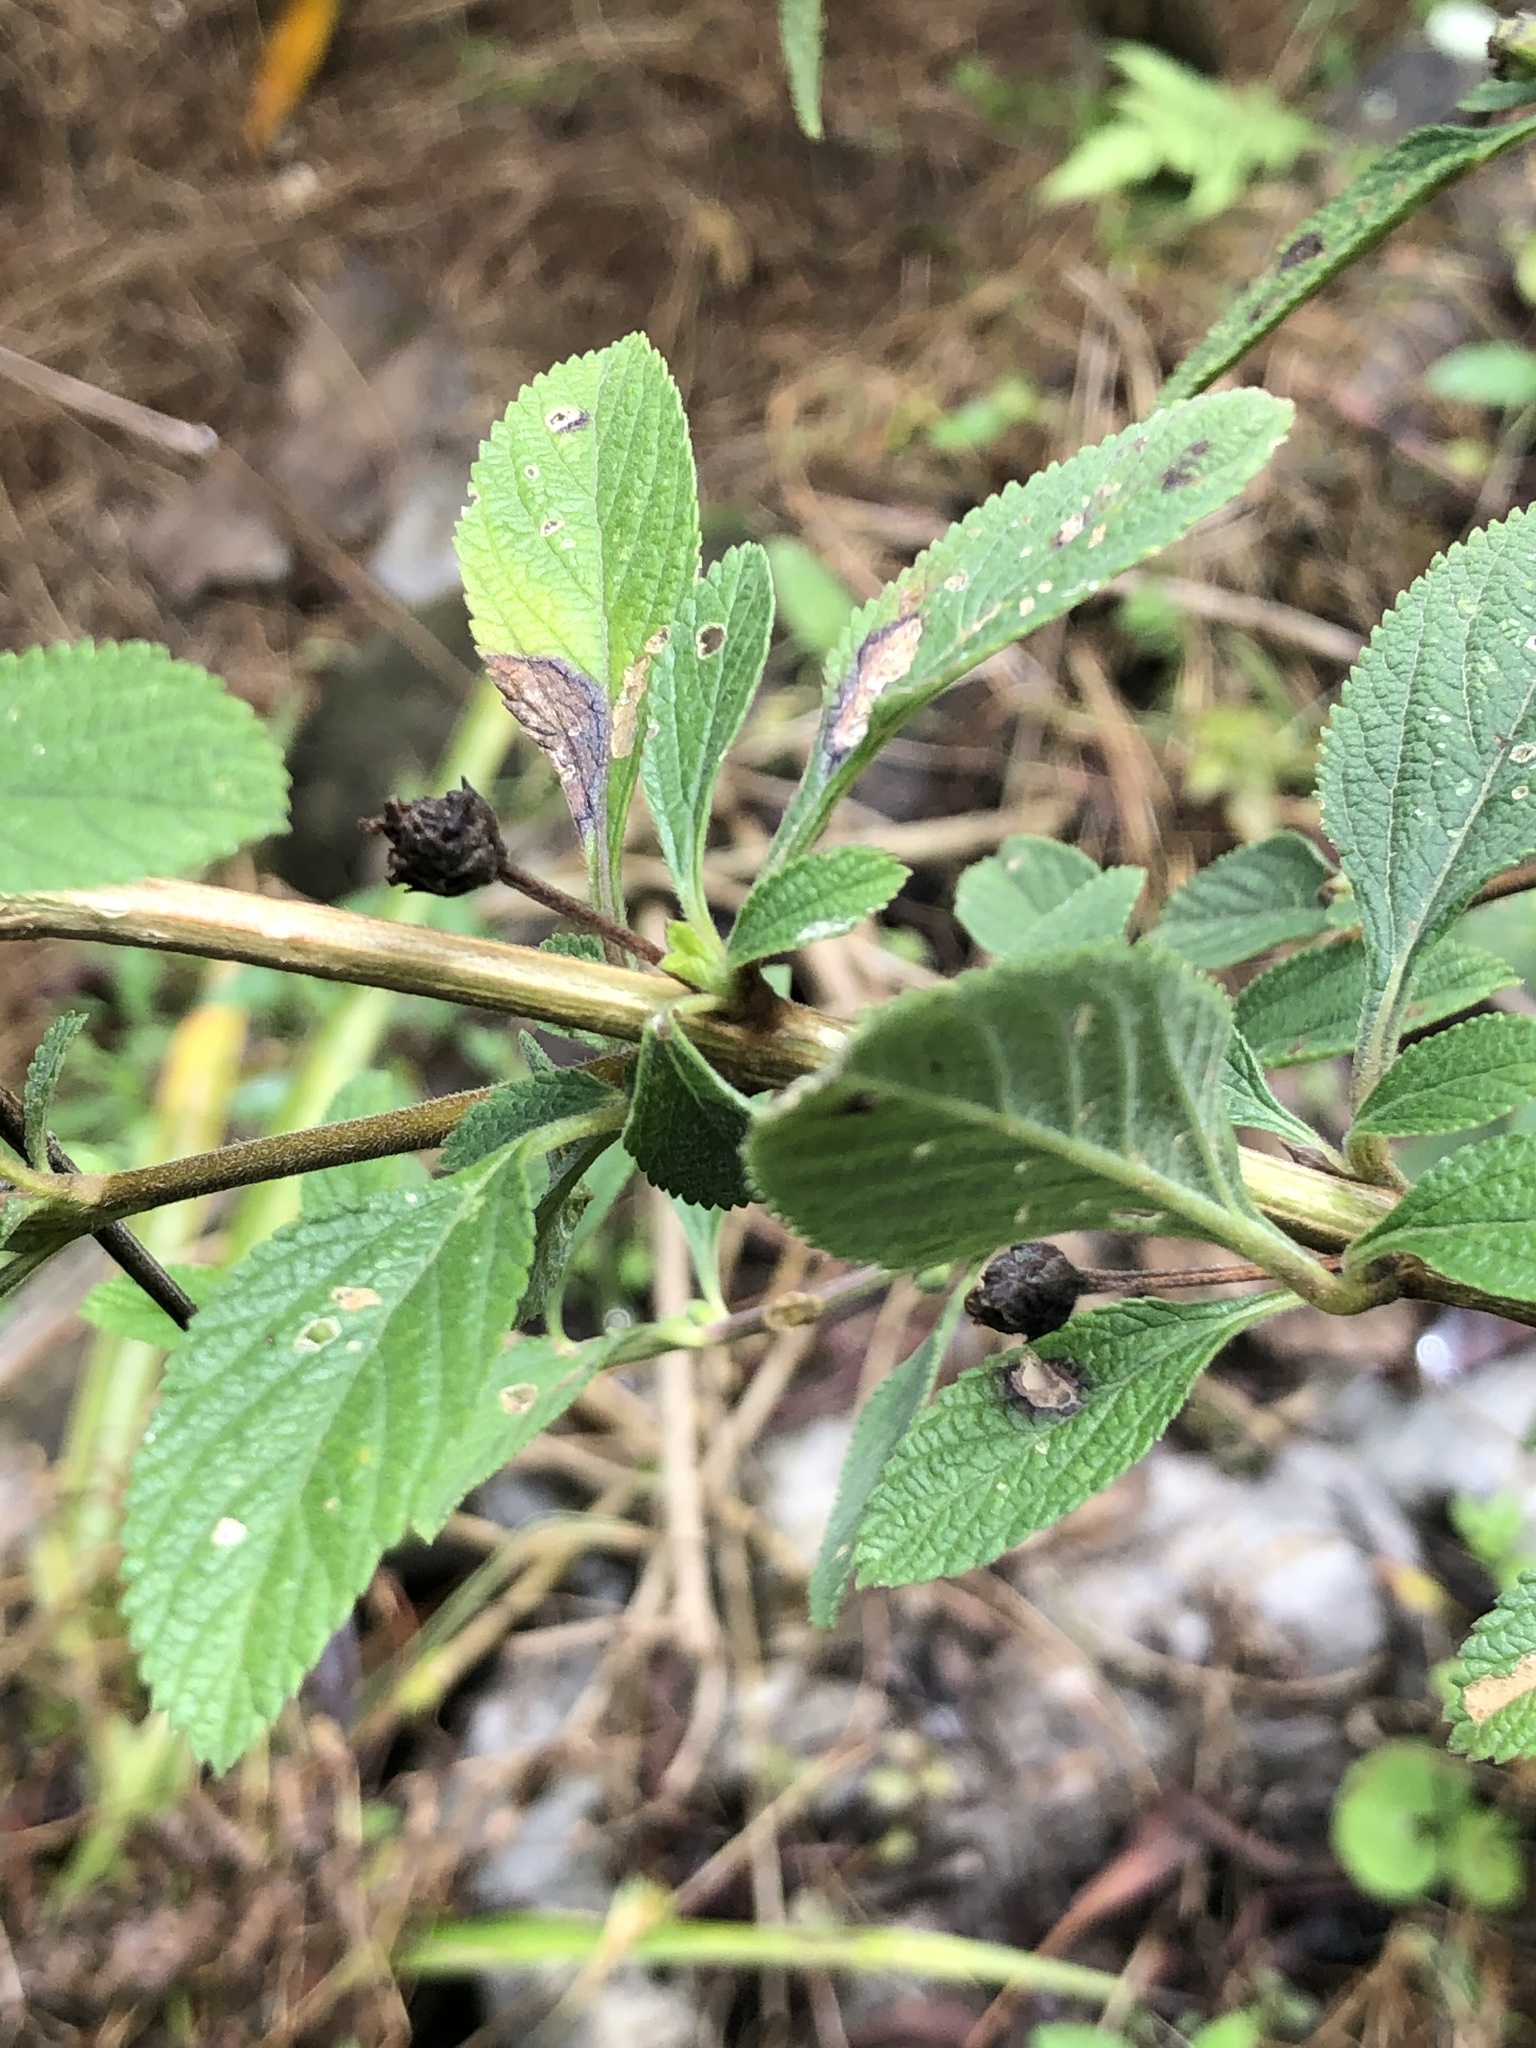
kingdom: Plantae
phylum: Tracheophyta
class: Magnoliopsida
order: Lamiales
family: Verbenaceae
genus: Lippia
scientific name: Lippia alba
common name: Bushy matgrass
